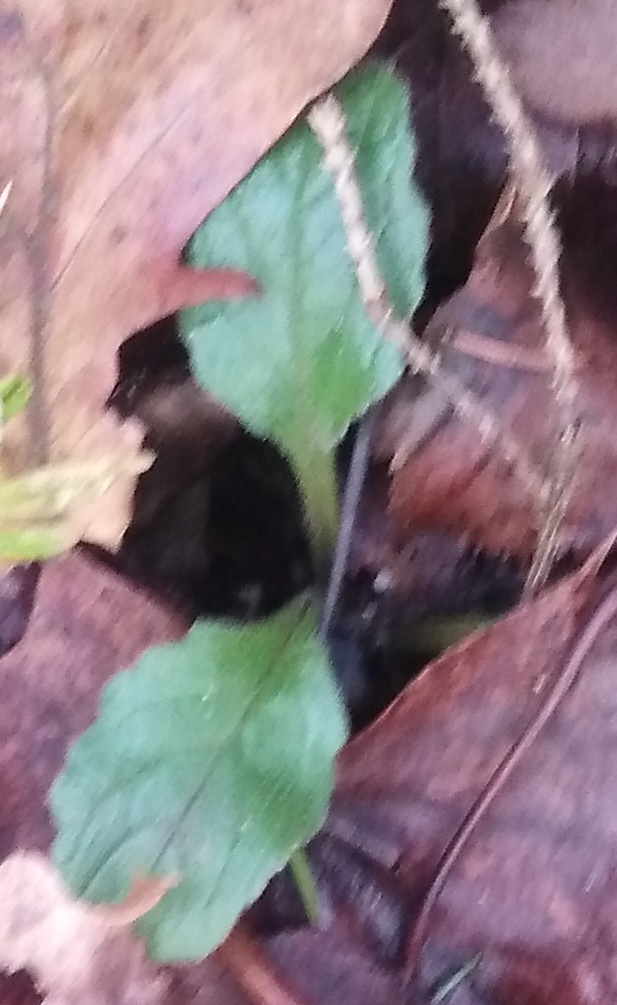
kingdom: Plantae
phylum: Tracheophyta
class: Magnoliopsida
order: Lamiales
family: Lamiaceae
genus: Ajuga
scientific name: Ajuga reptans
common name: Bugle
